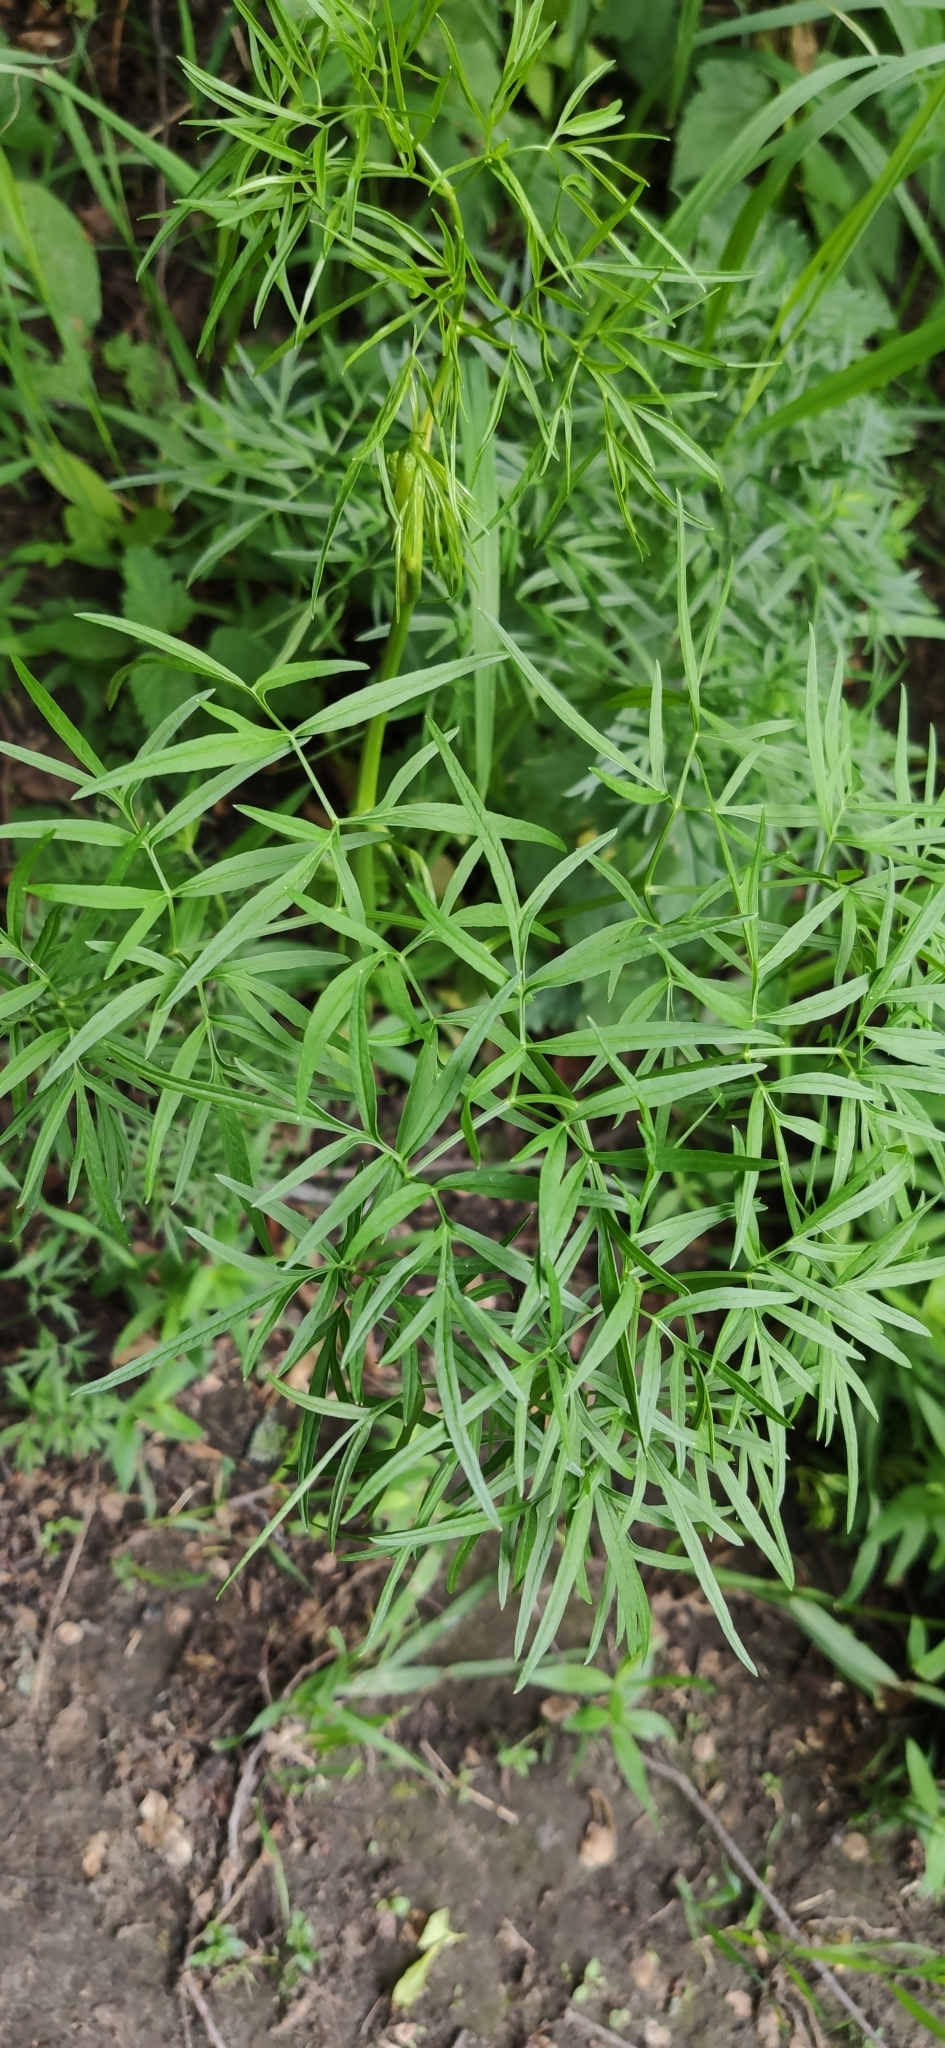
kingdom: Plantae
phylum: Tracheophyta
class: Magnoliopsida
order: Apiales
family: Apiaceae
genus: Cenolophium
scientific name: Cenolophium fischeri
